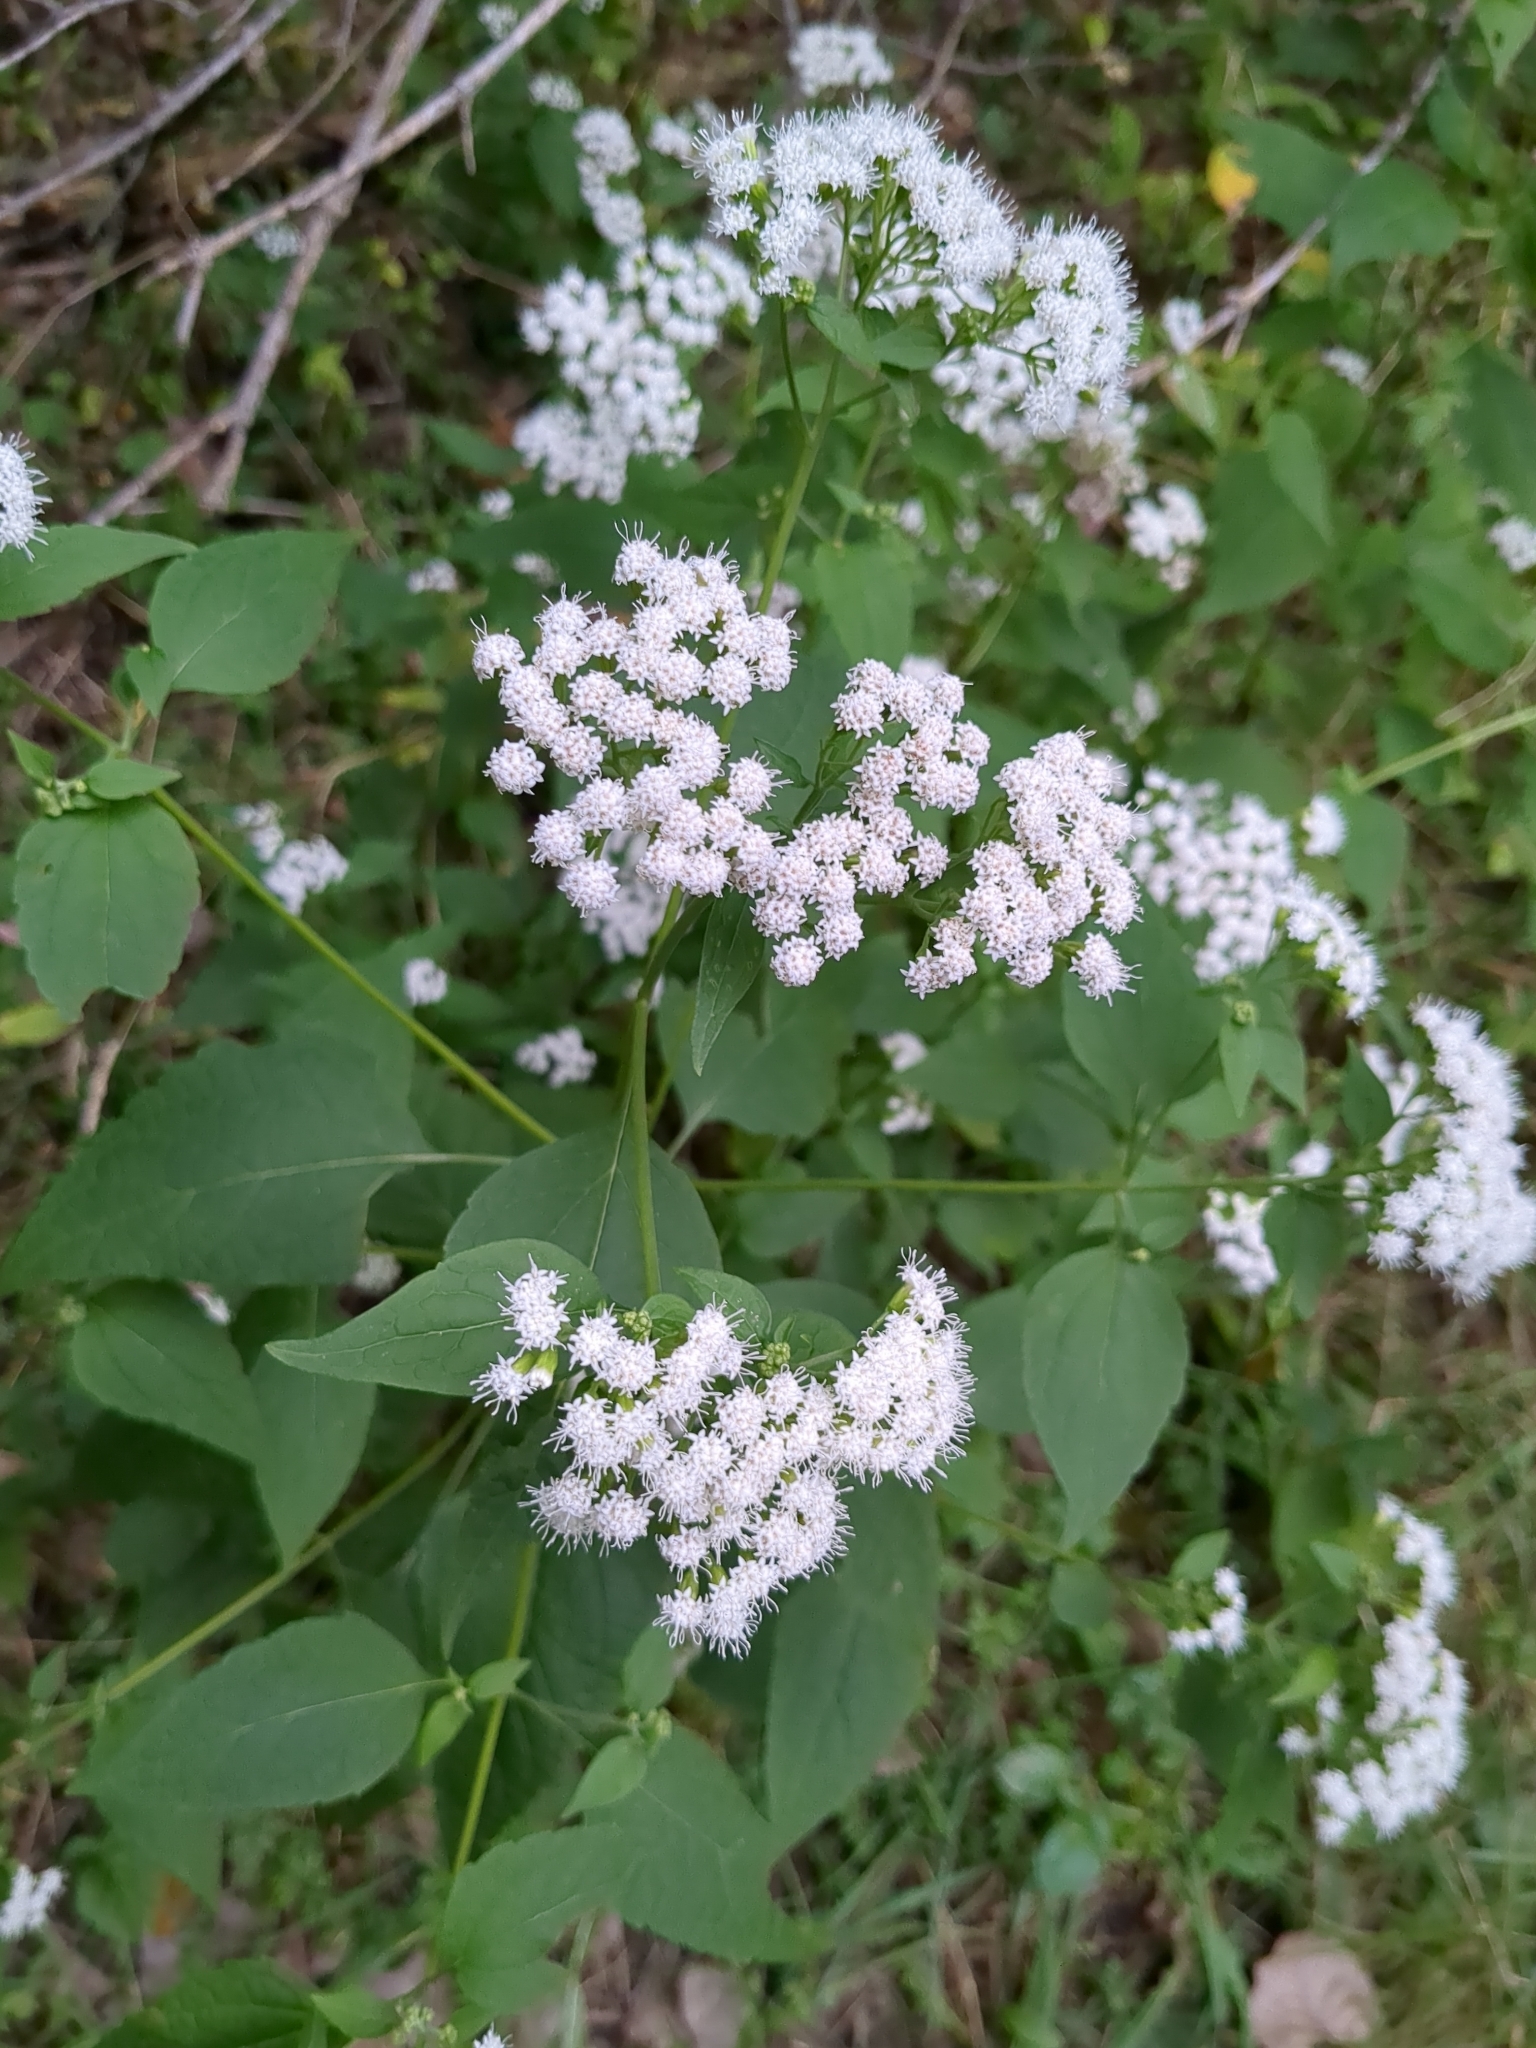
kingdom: Plantae
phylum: Tracheophyta
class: Magnoliopsida
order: Asterales
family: Asteraceae
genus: Ageratina
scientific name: Ageratina altissima
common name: White snakeroot
